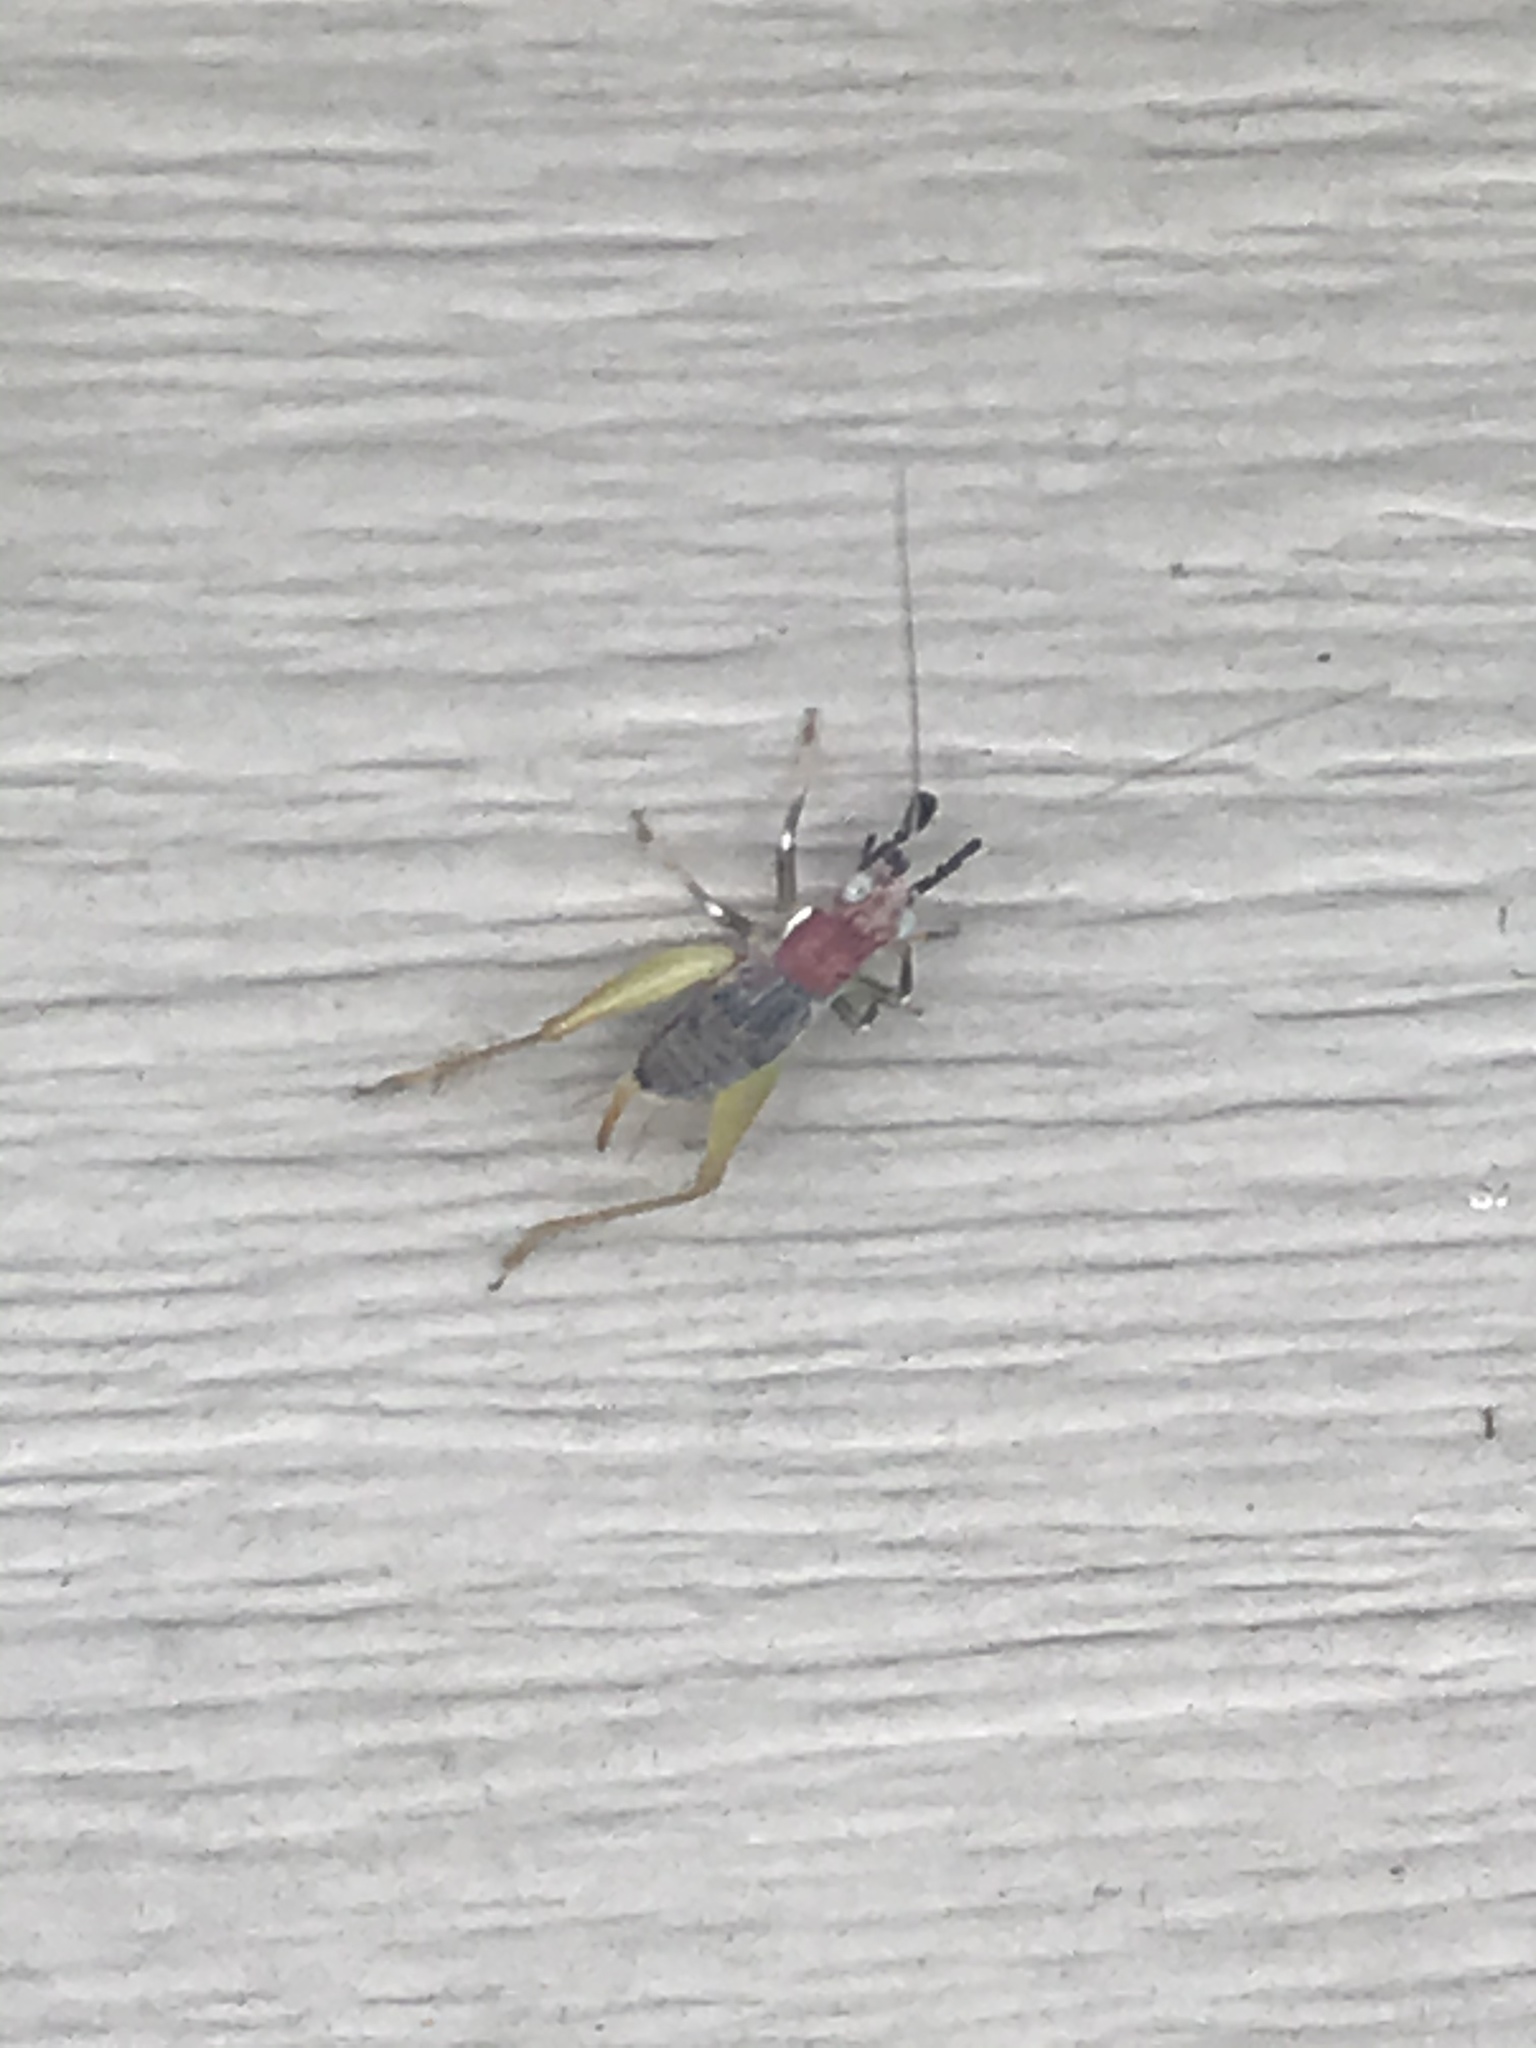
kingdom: Animalia
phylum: Arthropoda
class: Insecta
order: Orthoptera
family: Trigonidiidae
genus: Phyllopalpus
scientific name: Phyllopalpus pulchellus
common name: Handsome trig
